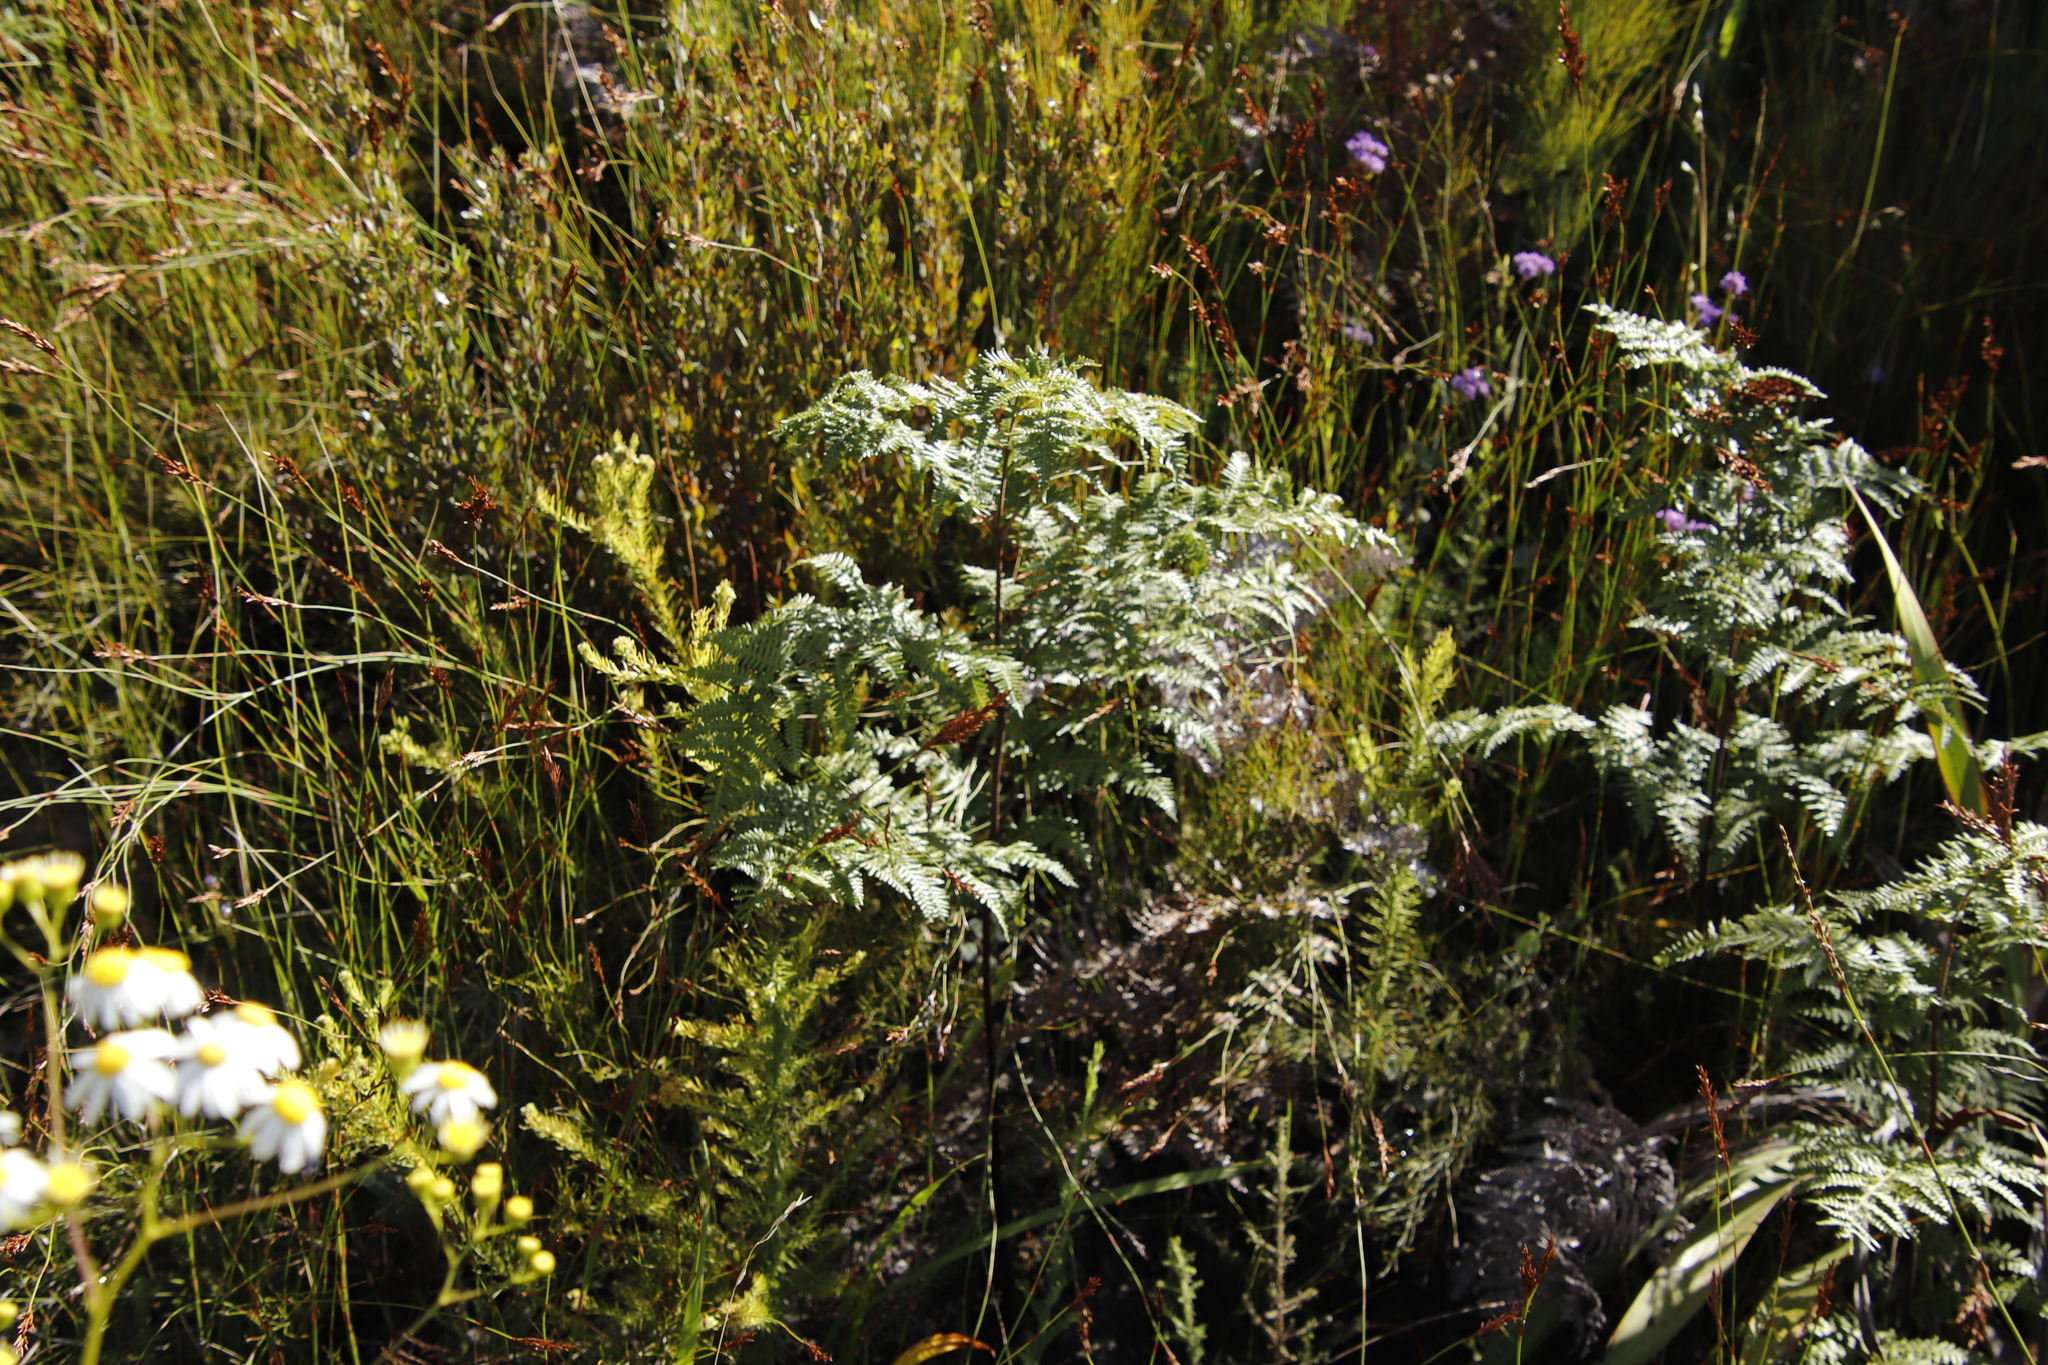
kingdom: Plantae
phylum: Tracheophyta
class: Polypodiopsida
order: Polypodiales
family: Dennstaedtiaceae
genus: Pteridium
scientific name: Pteridium aquilinum
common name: Bracken
